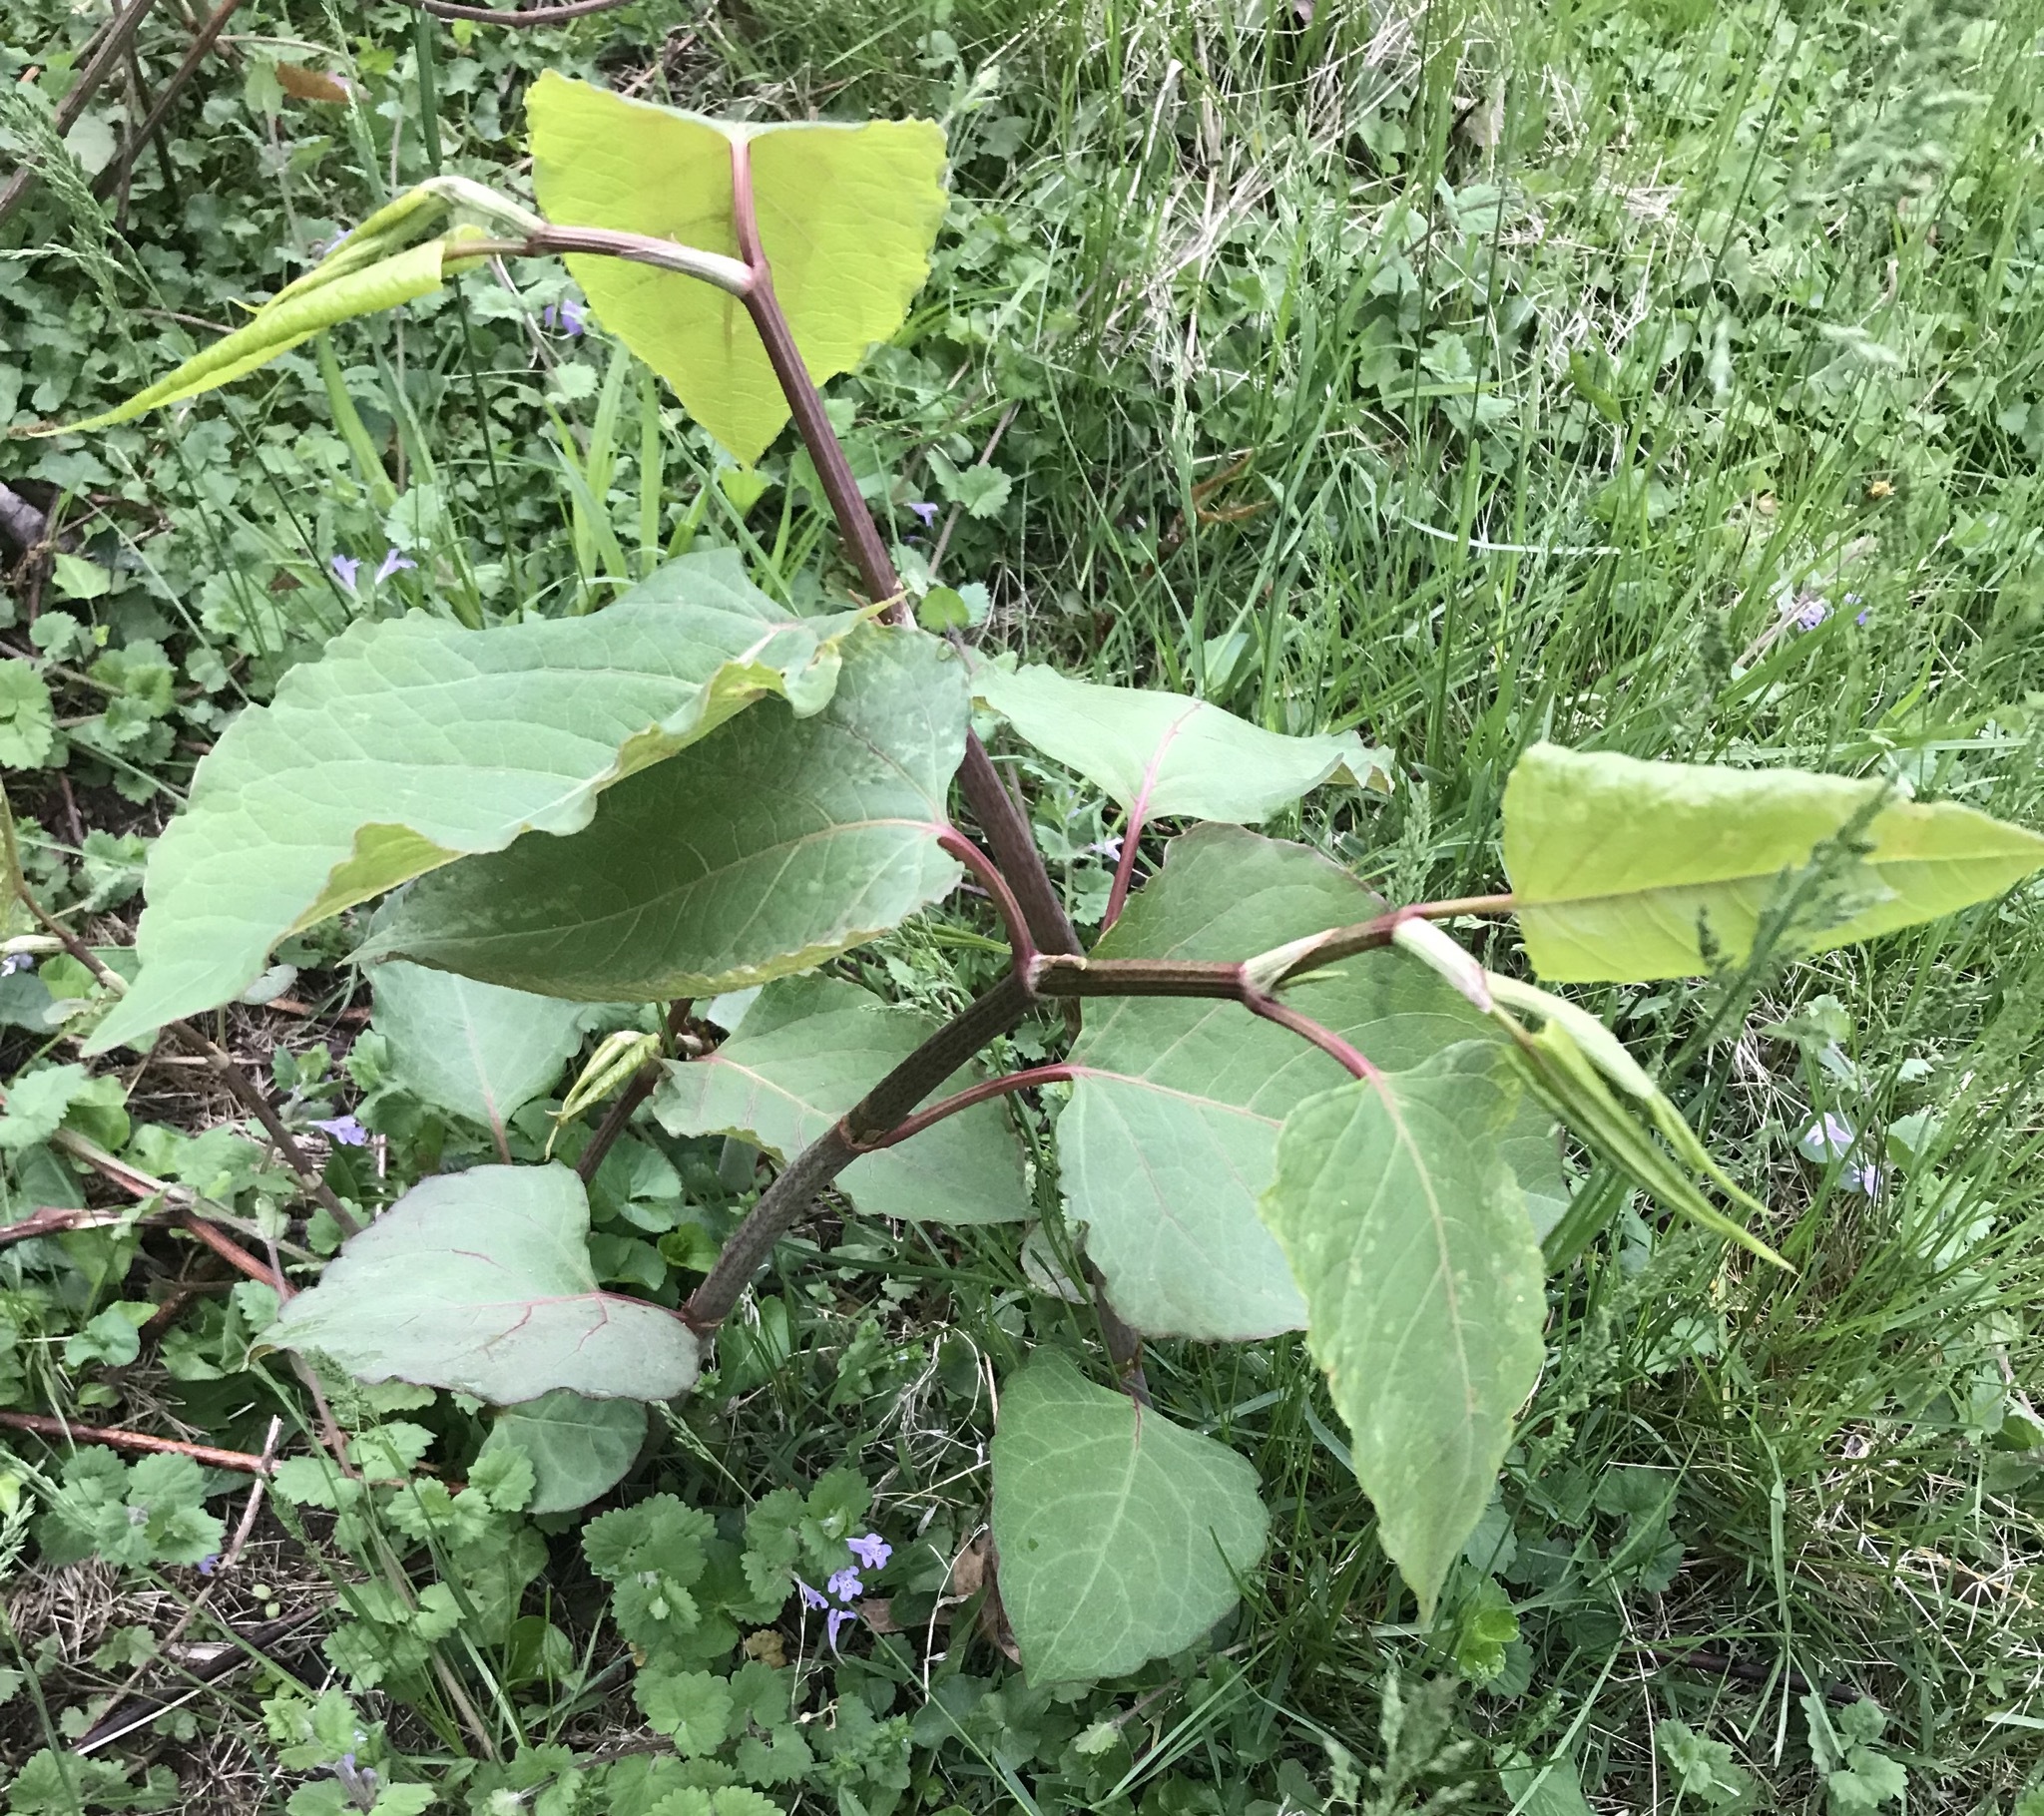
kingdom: Plantae
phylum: Tracheophyta
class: Magnoliopsida
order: Caryophyllales
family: Polygonaceae
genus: Reynoutria
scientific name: Reynoutria japonica
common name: Japanese knotweed
